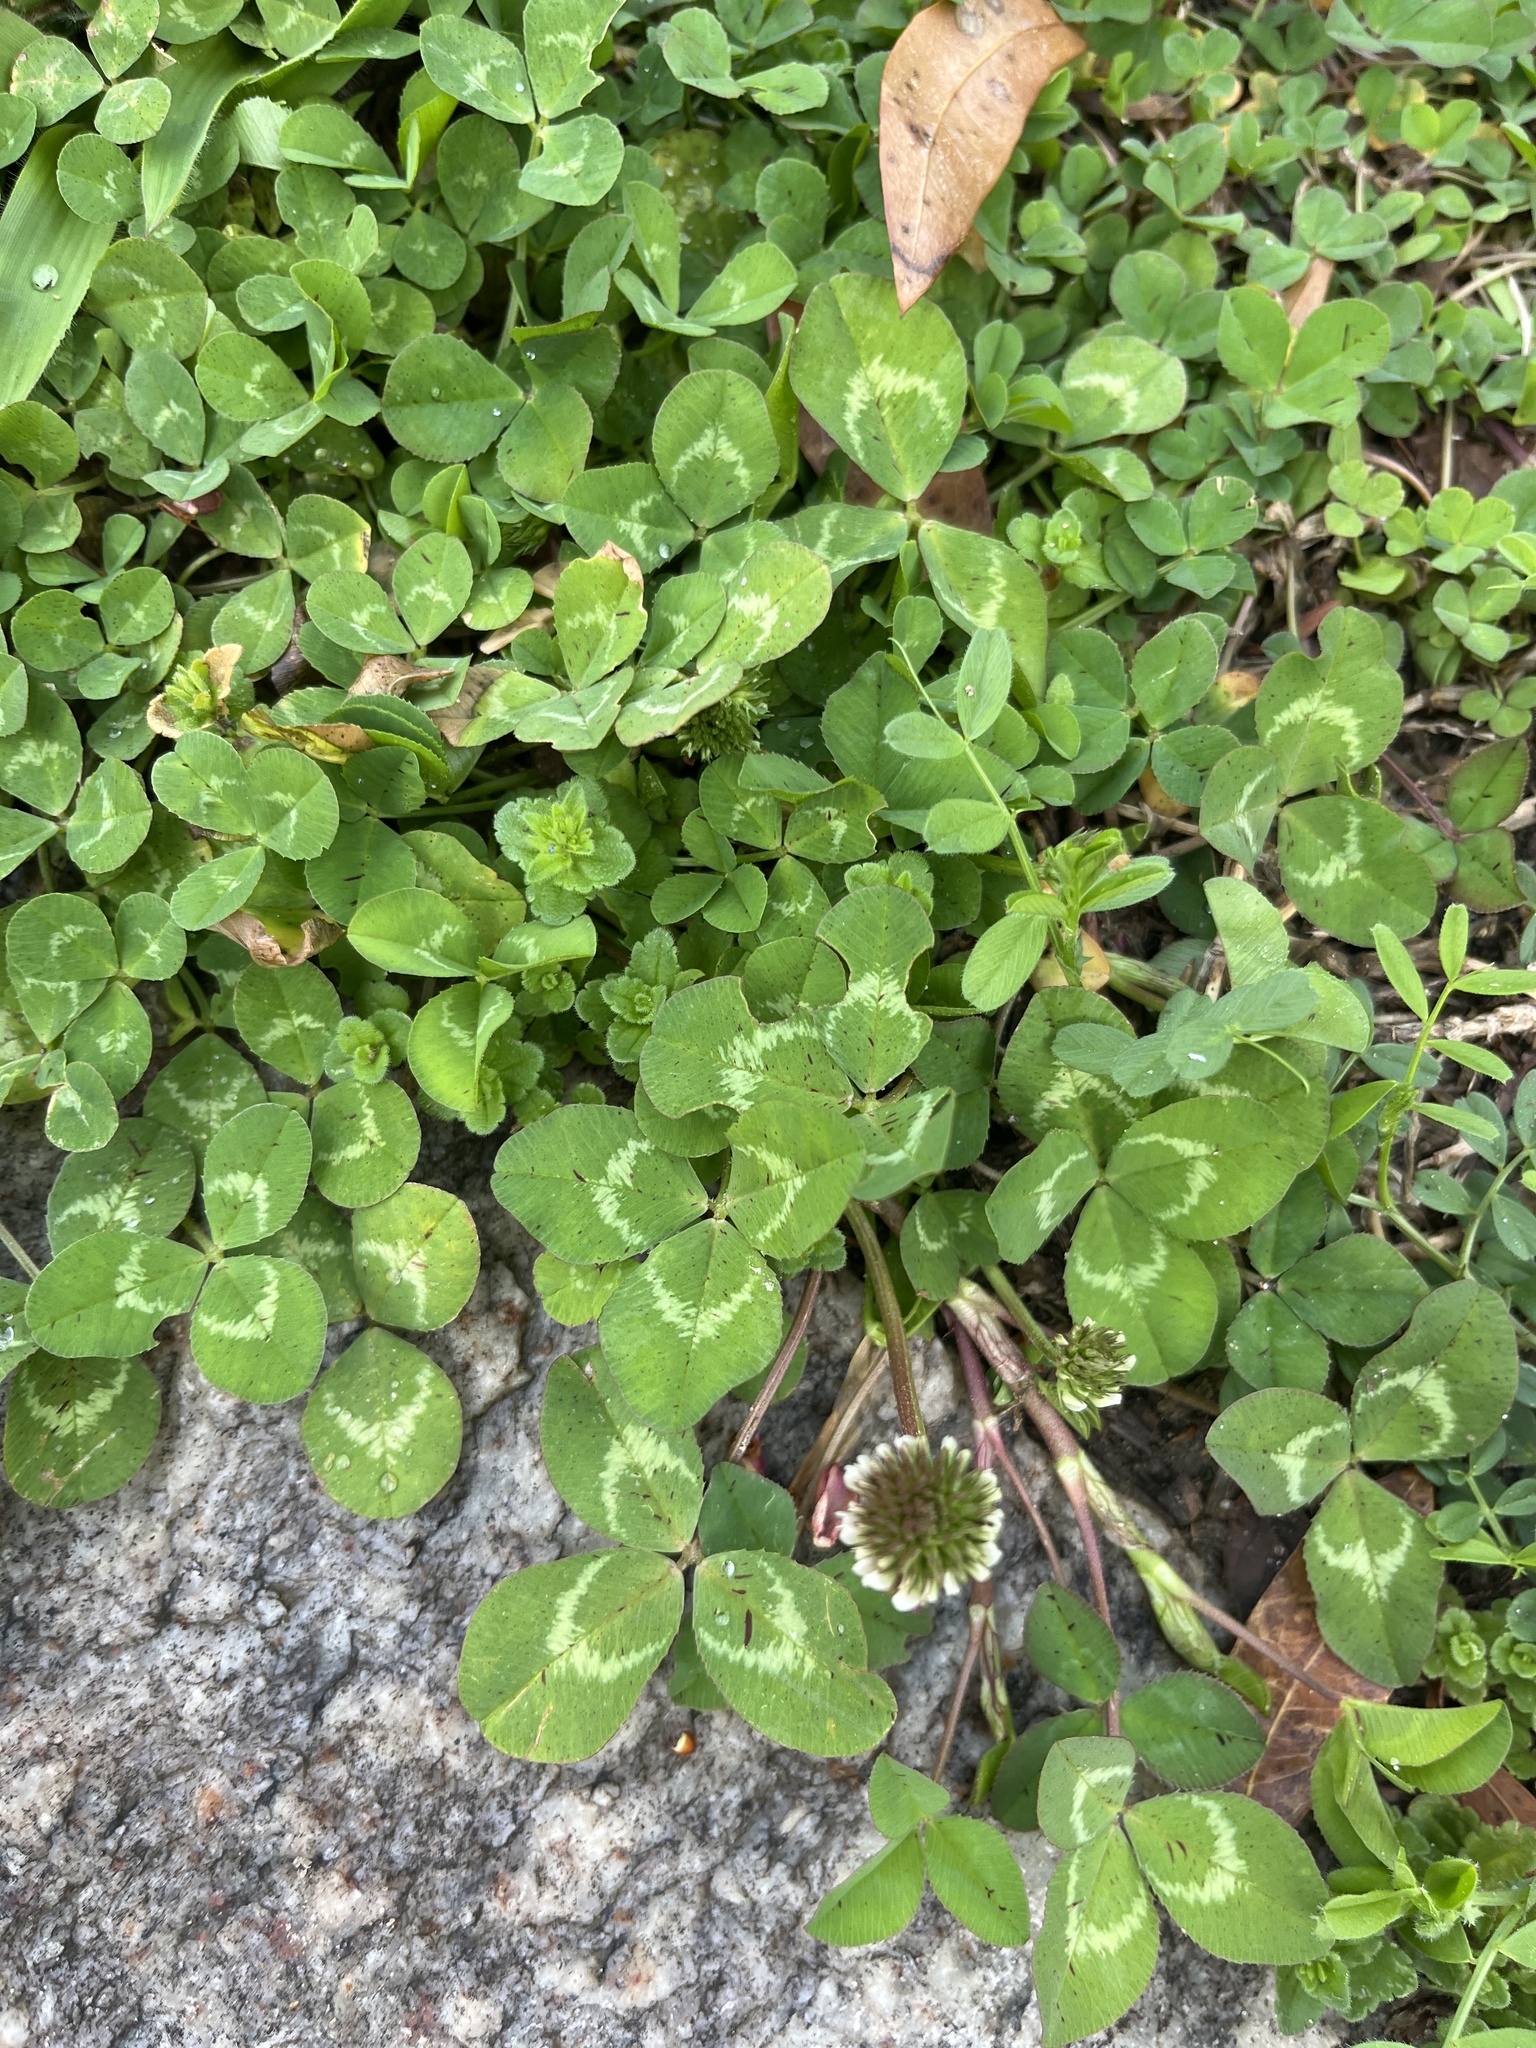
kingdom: Plantae
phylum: Tracheophyta
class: Magnoliopsida
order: Fabales
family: Fabaceae
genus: Trifolium
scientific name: Trifolium repens
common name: White clover
